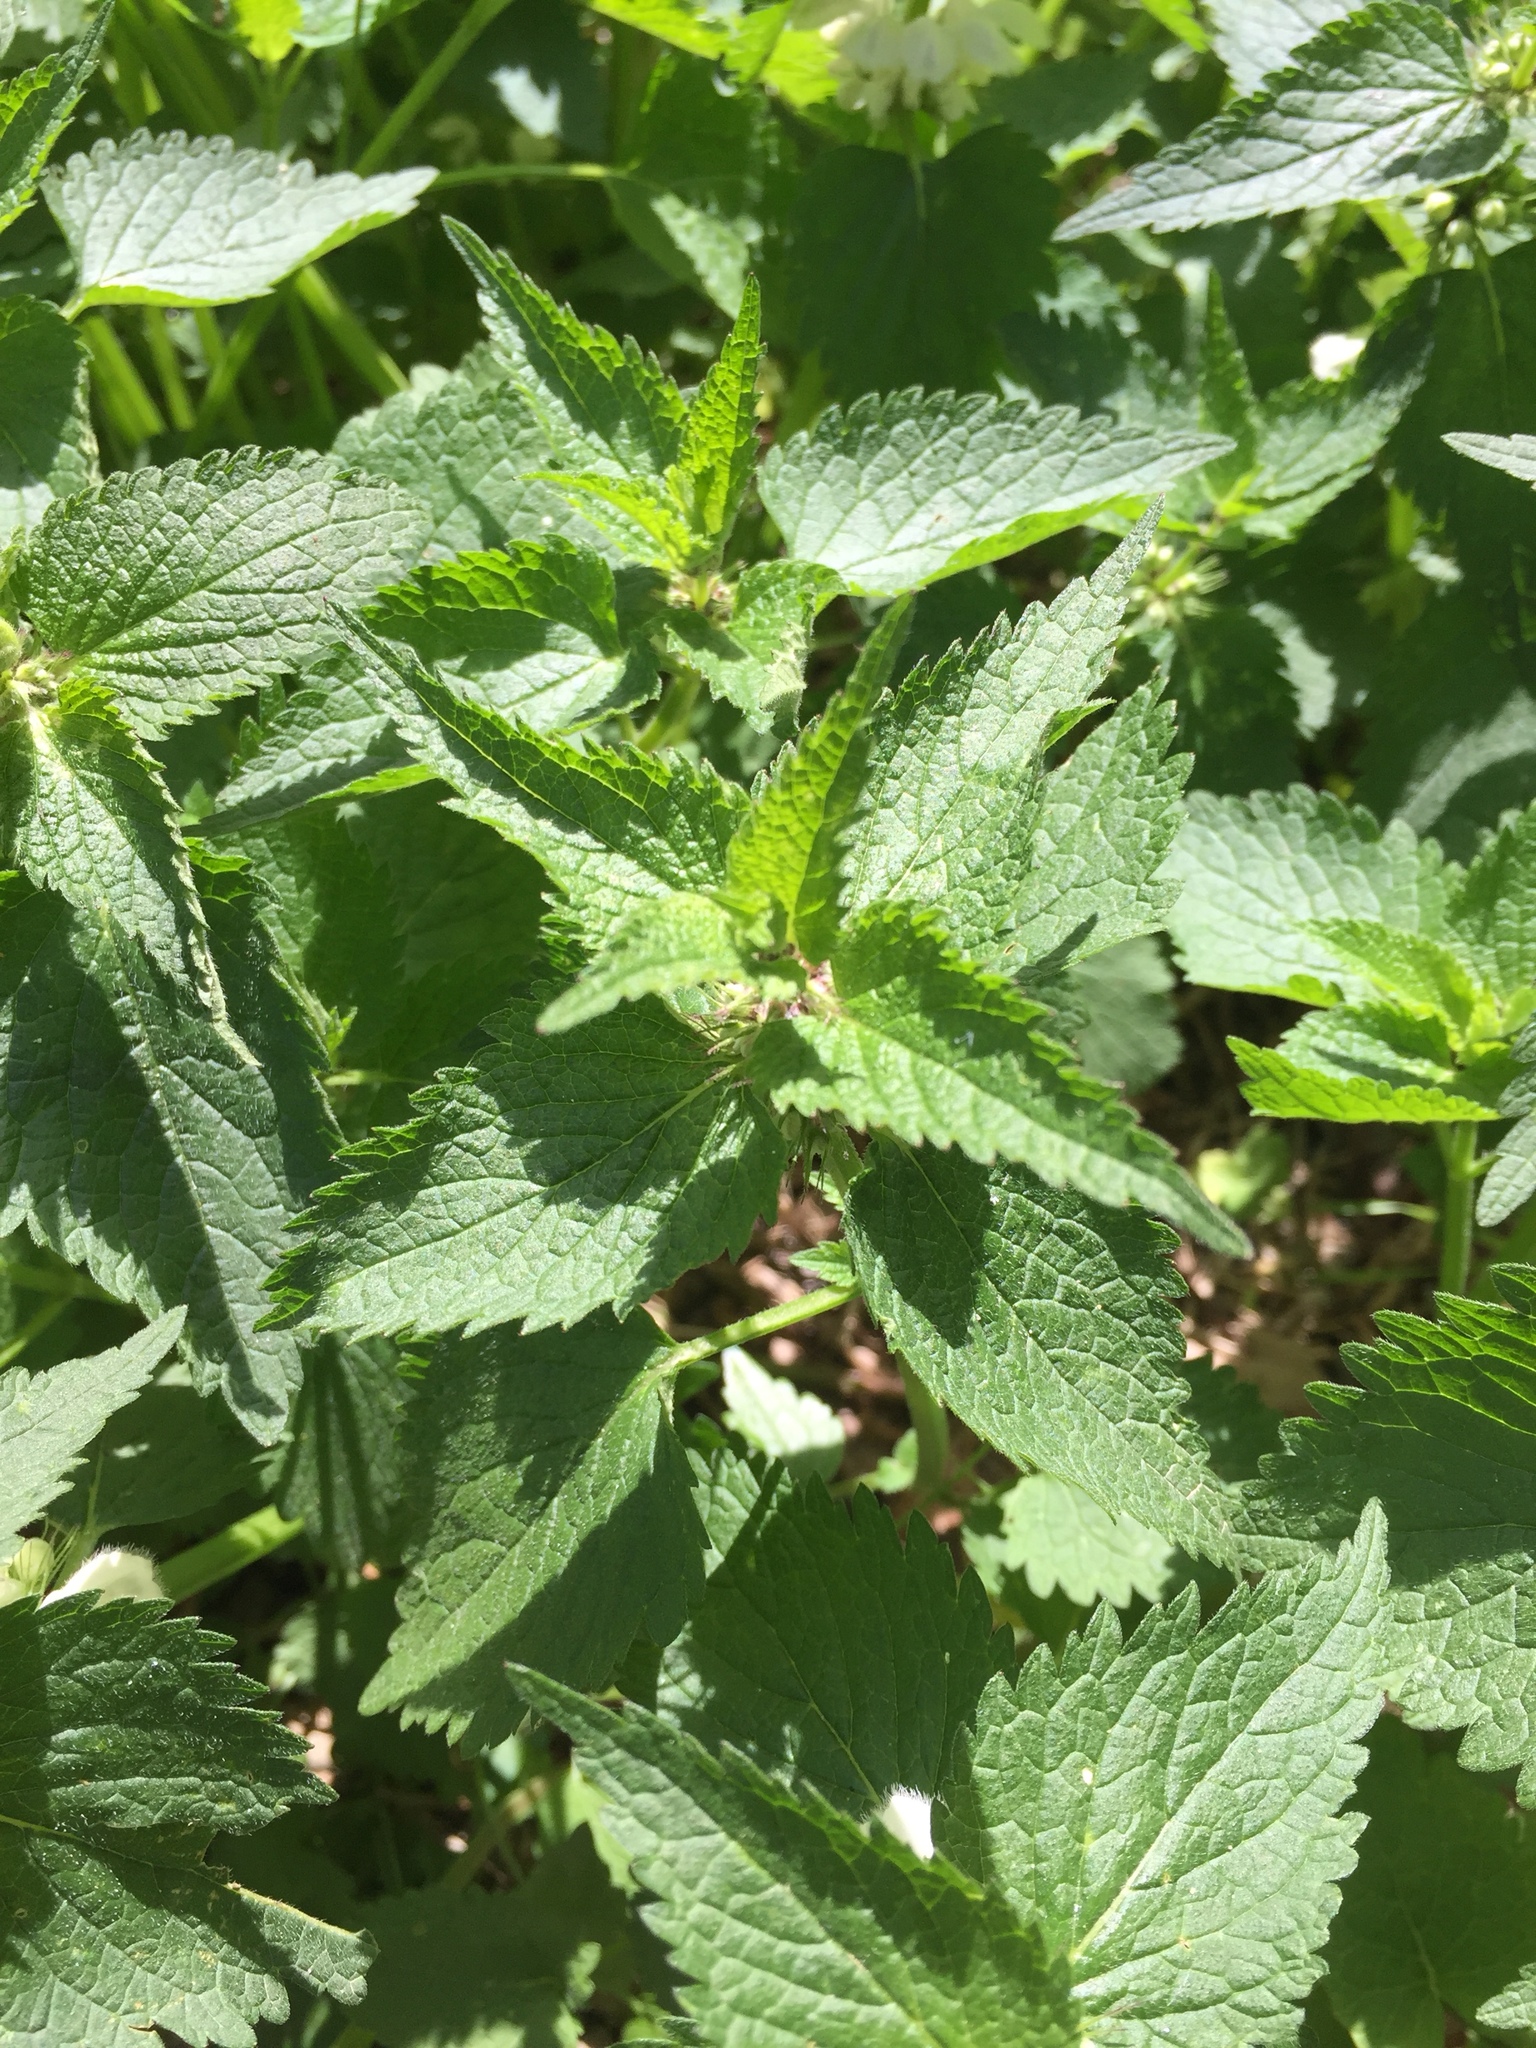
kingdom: Plantae
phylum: Tracheophyta
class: Magnoliopsida
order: Lamiales
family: Lamiaceae
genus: Lamium
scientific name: Lamium album
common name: White dead-nettle
